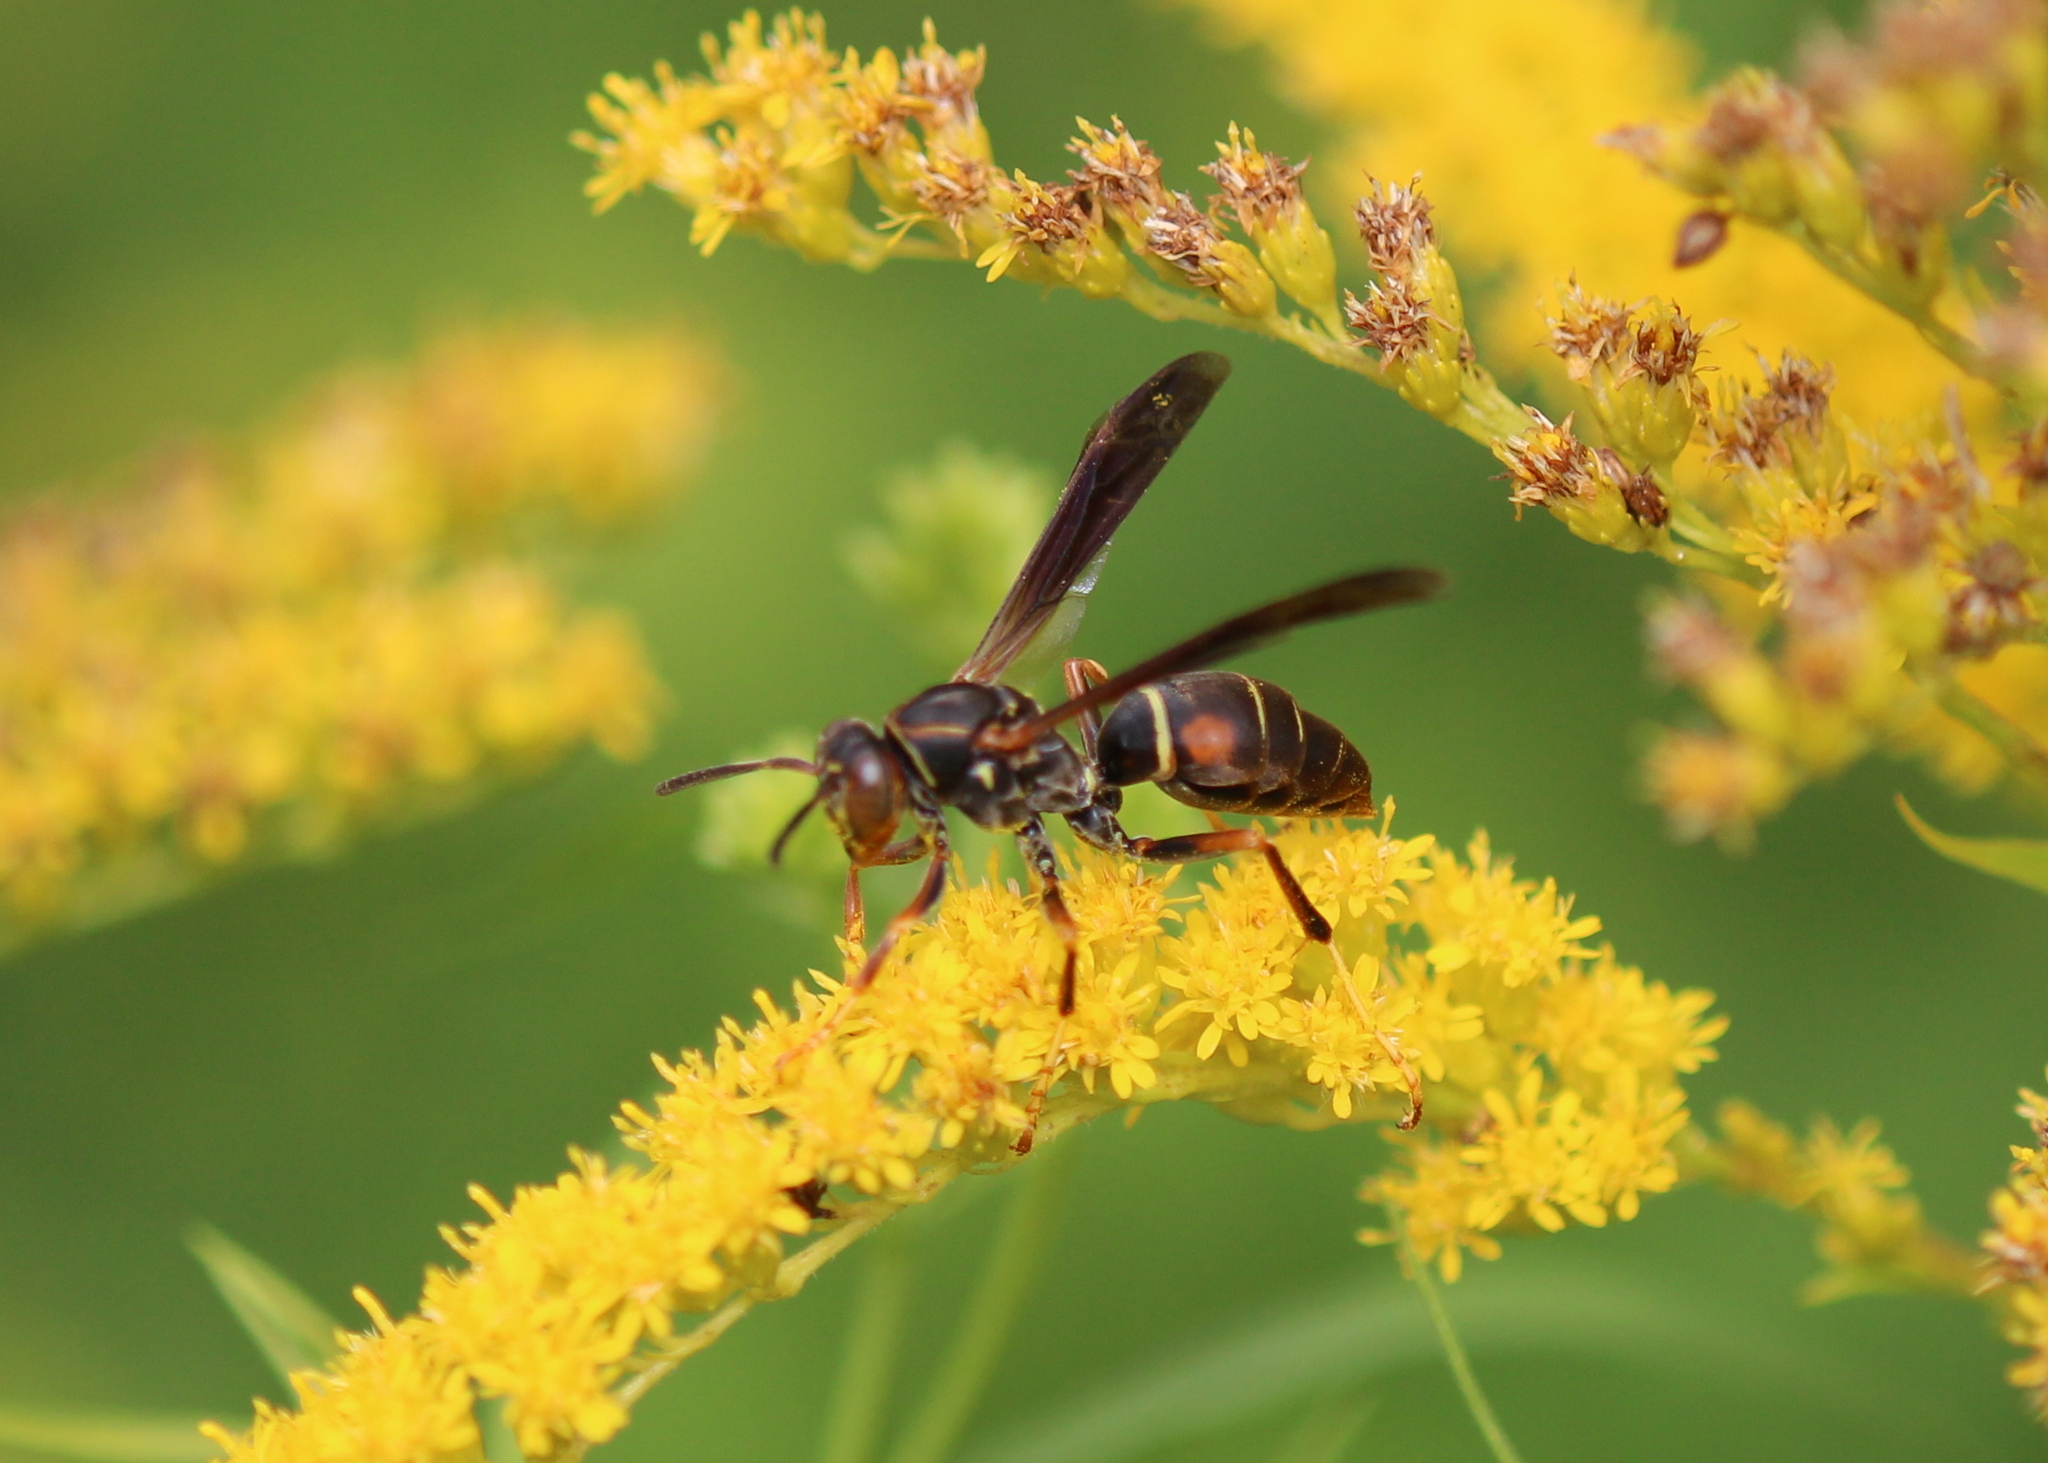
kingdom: Animalia
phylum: Arthropoda
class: Insecta
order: Hymenoptera
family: Eumenidae
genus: Polistes
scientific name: Polistes fuscatus
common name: Dark paper wasp
